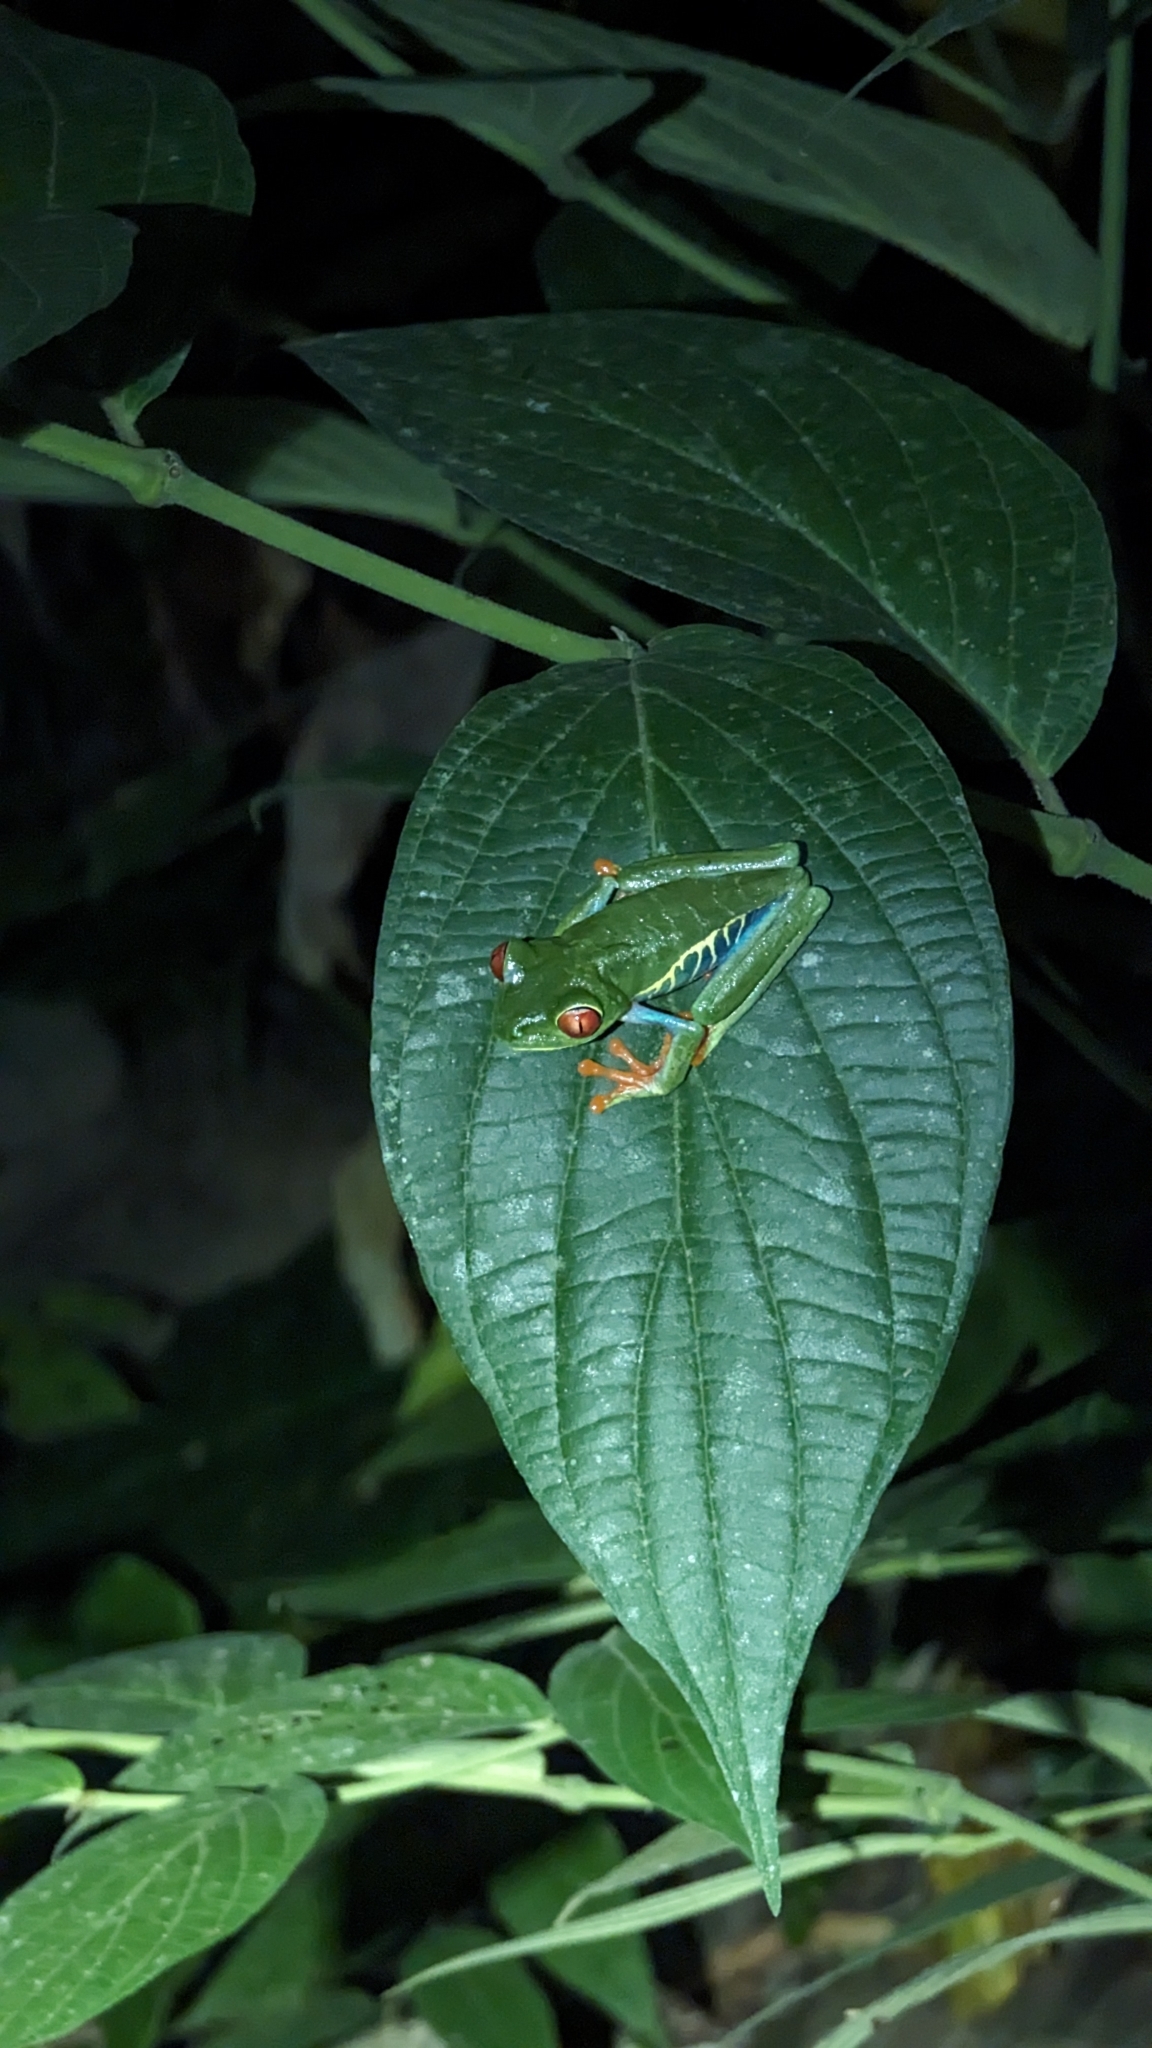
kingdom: Animalia
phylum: Chordata
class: Amphibia
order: Anura
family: Phyllomedusidae
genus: Agalychnis
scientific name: Agalychnis callidryas
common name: Red-eyed treefrog
